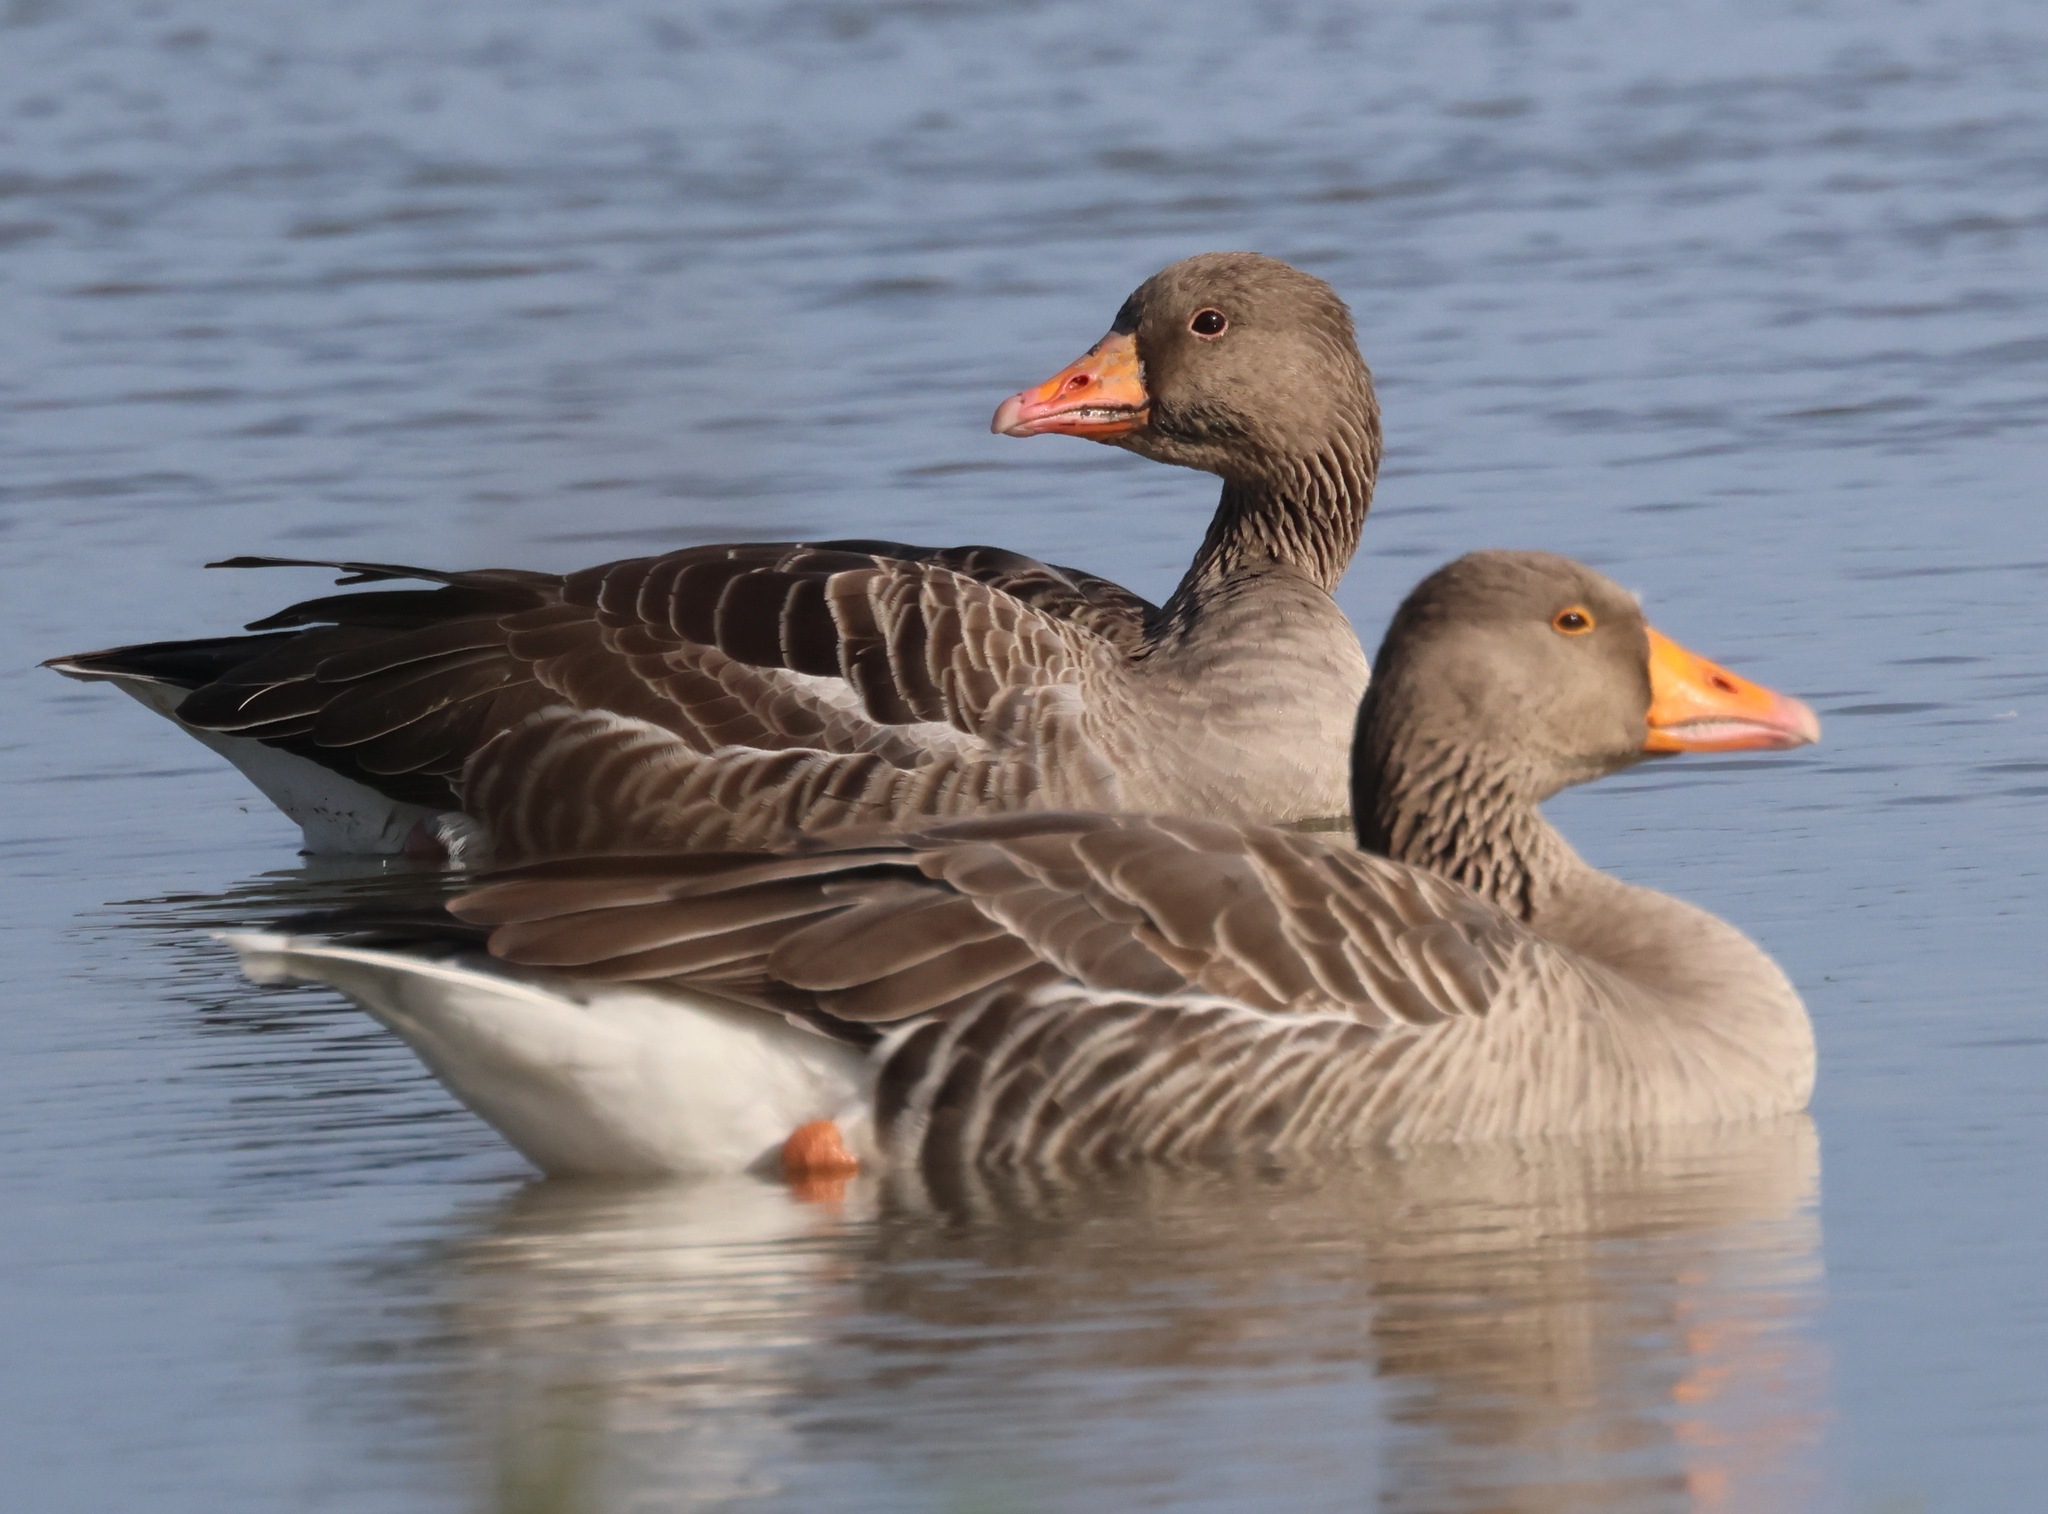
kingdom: Animalia
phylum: Chordata
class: Aves
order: Anseriformes
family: Anatidae
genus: Anser
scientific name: Anser anser
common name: Greylag goose
